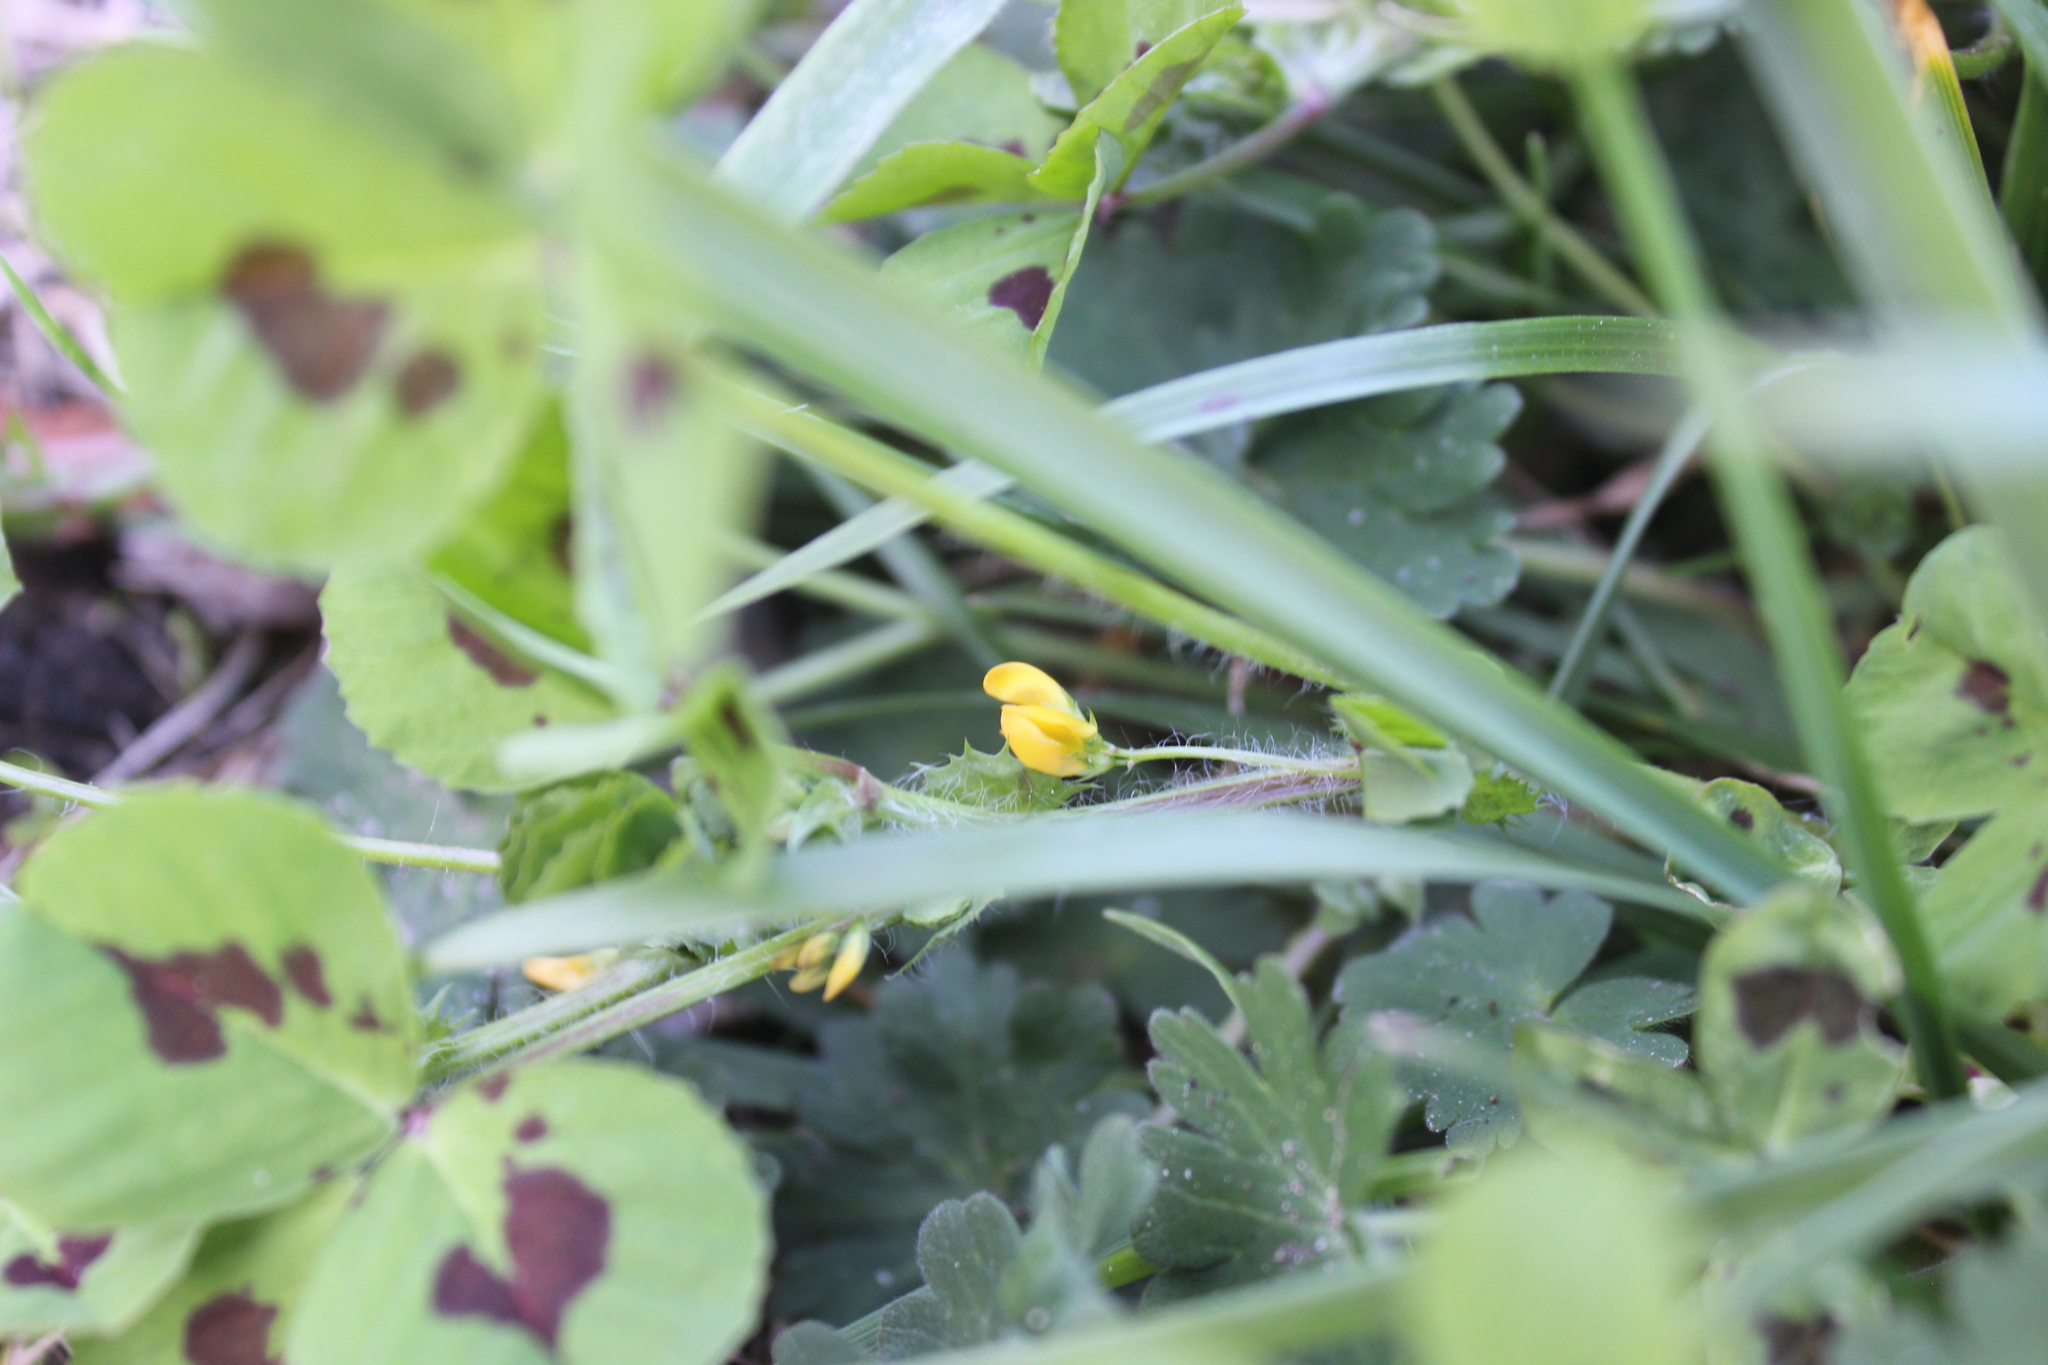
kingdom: Plantae
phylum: Tracheophyta
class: Magnoliopsida
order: Fabales
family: Fabaceae
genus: Medicago
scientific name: Medicago arabica
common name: Spotted medick
